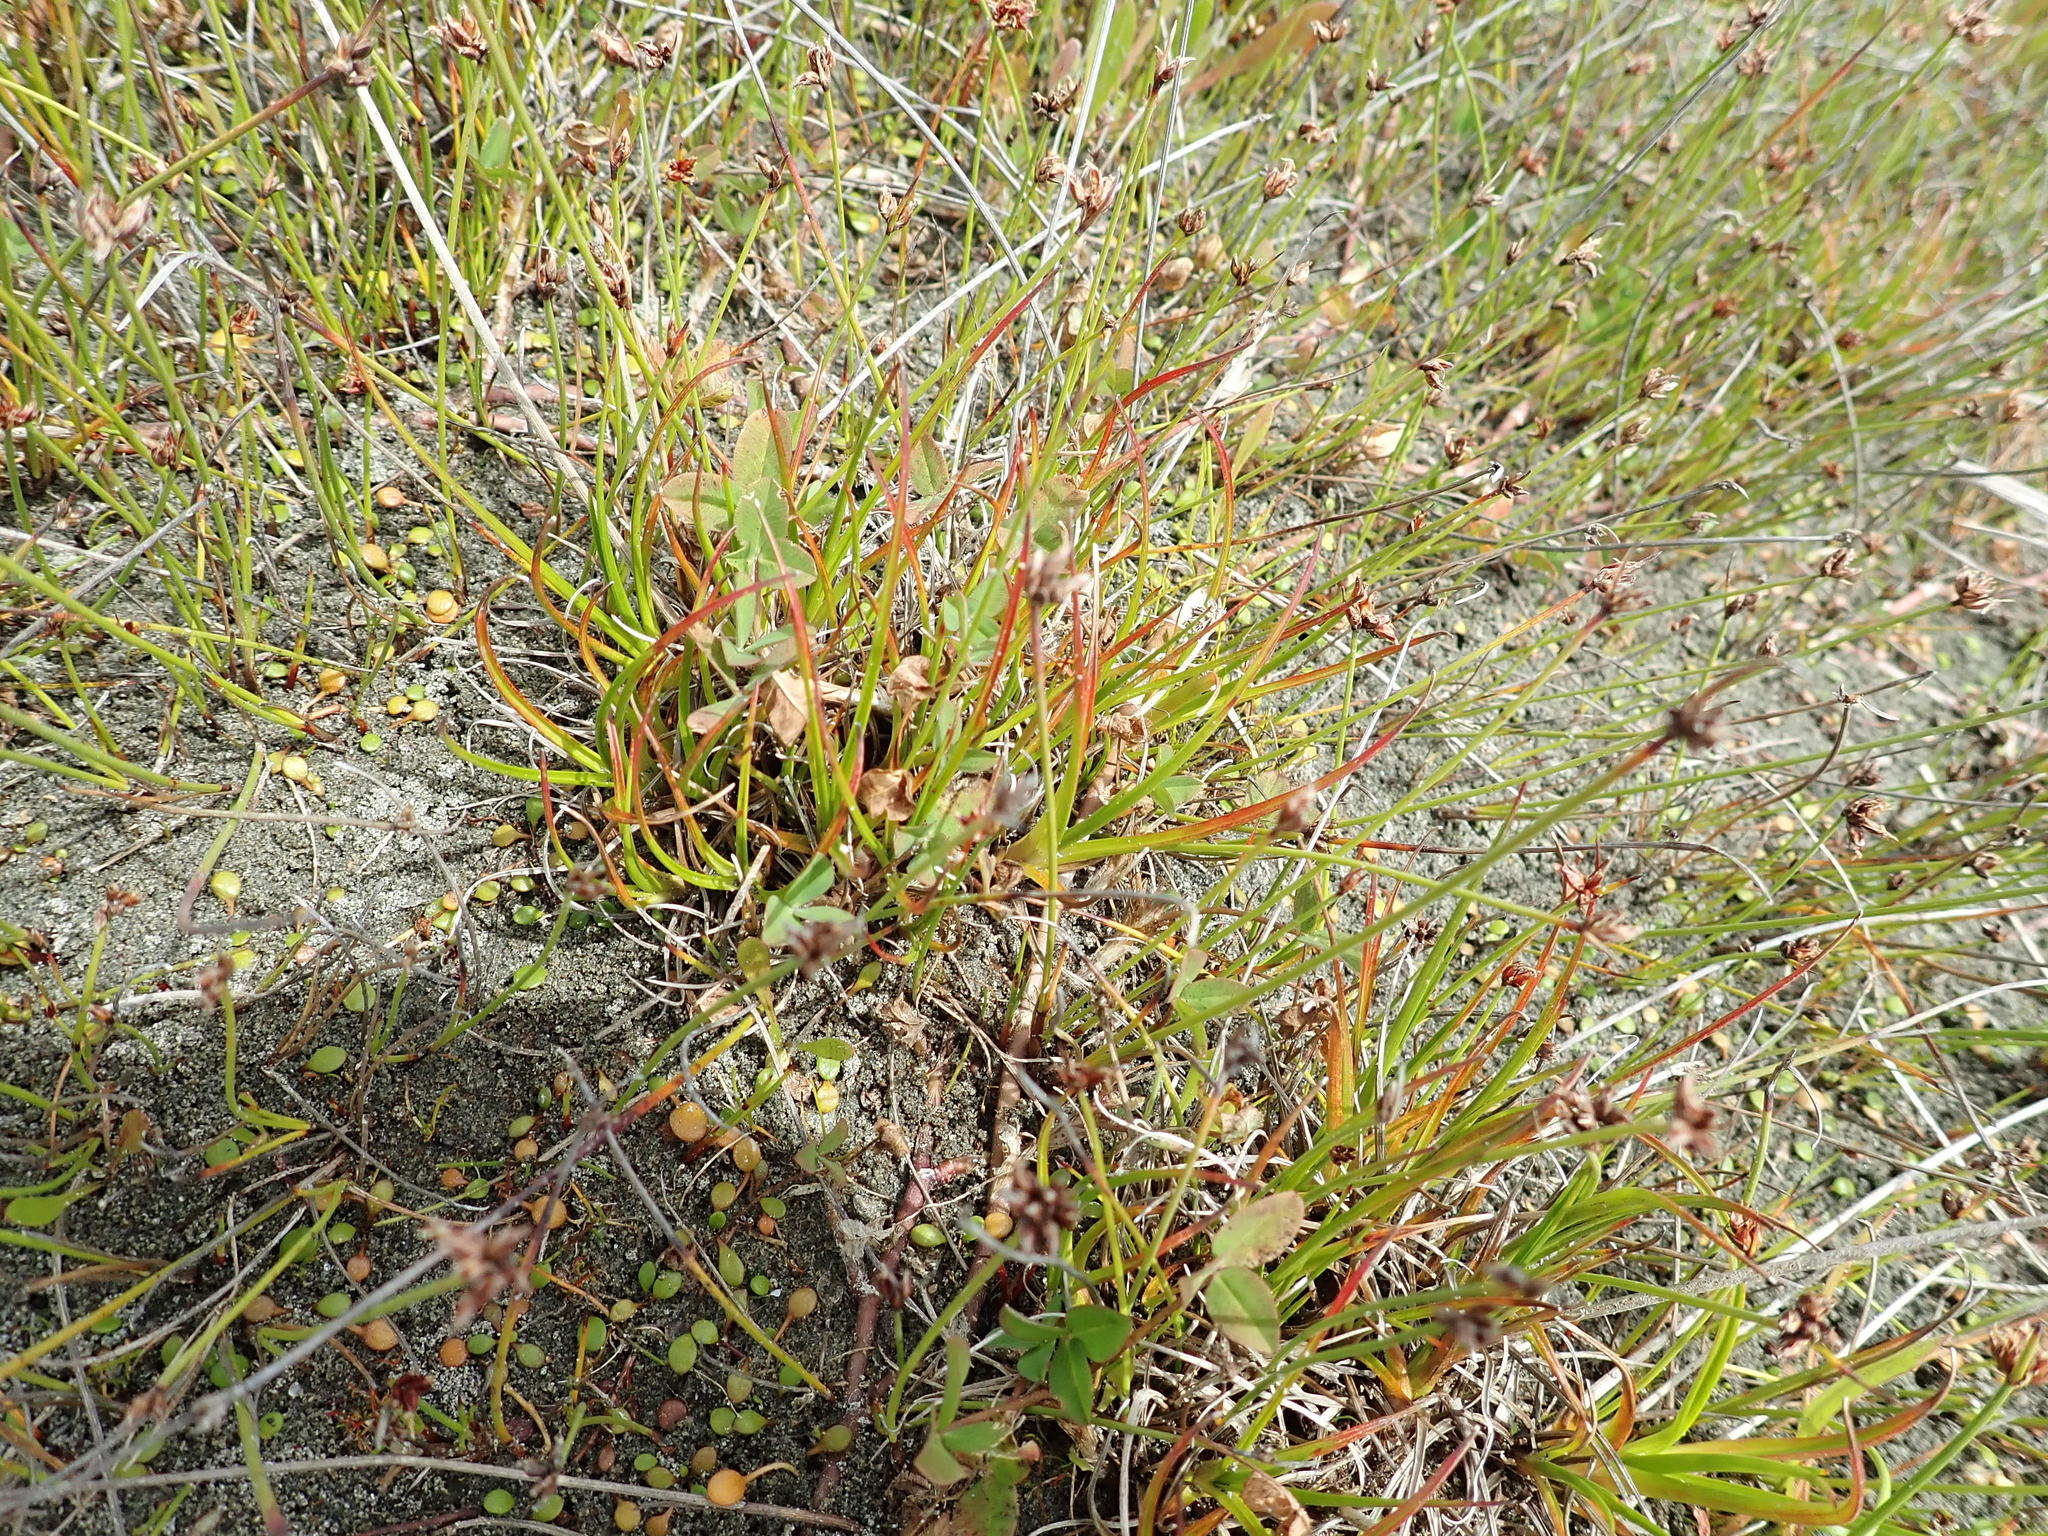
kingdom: Plantae
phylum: Tracheophyta
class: Liliopsida
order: Poales
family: Juncaceae
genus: Juncus
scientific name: Juncus caespiticius
